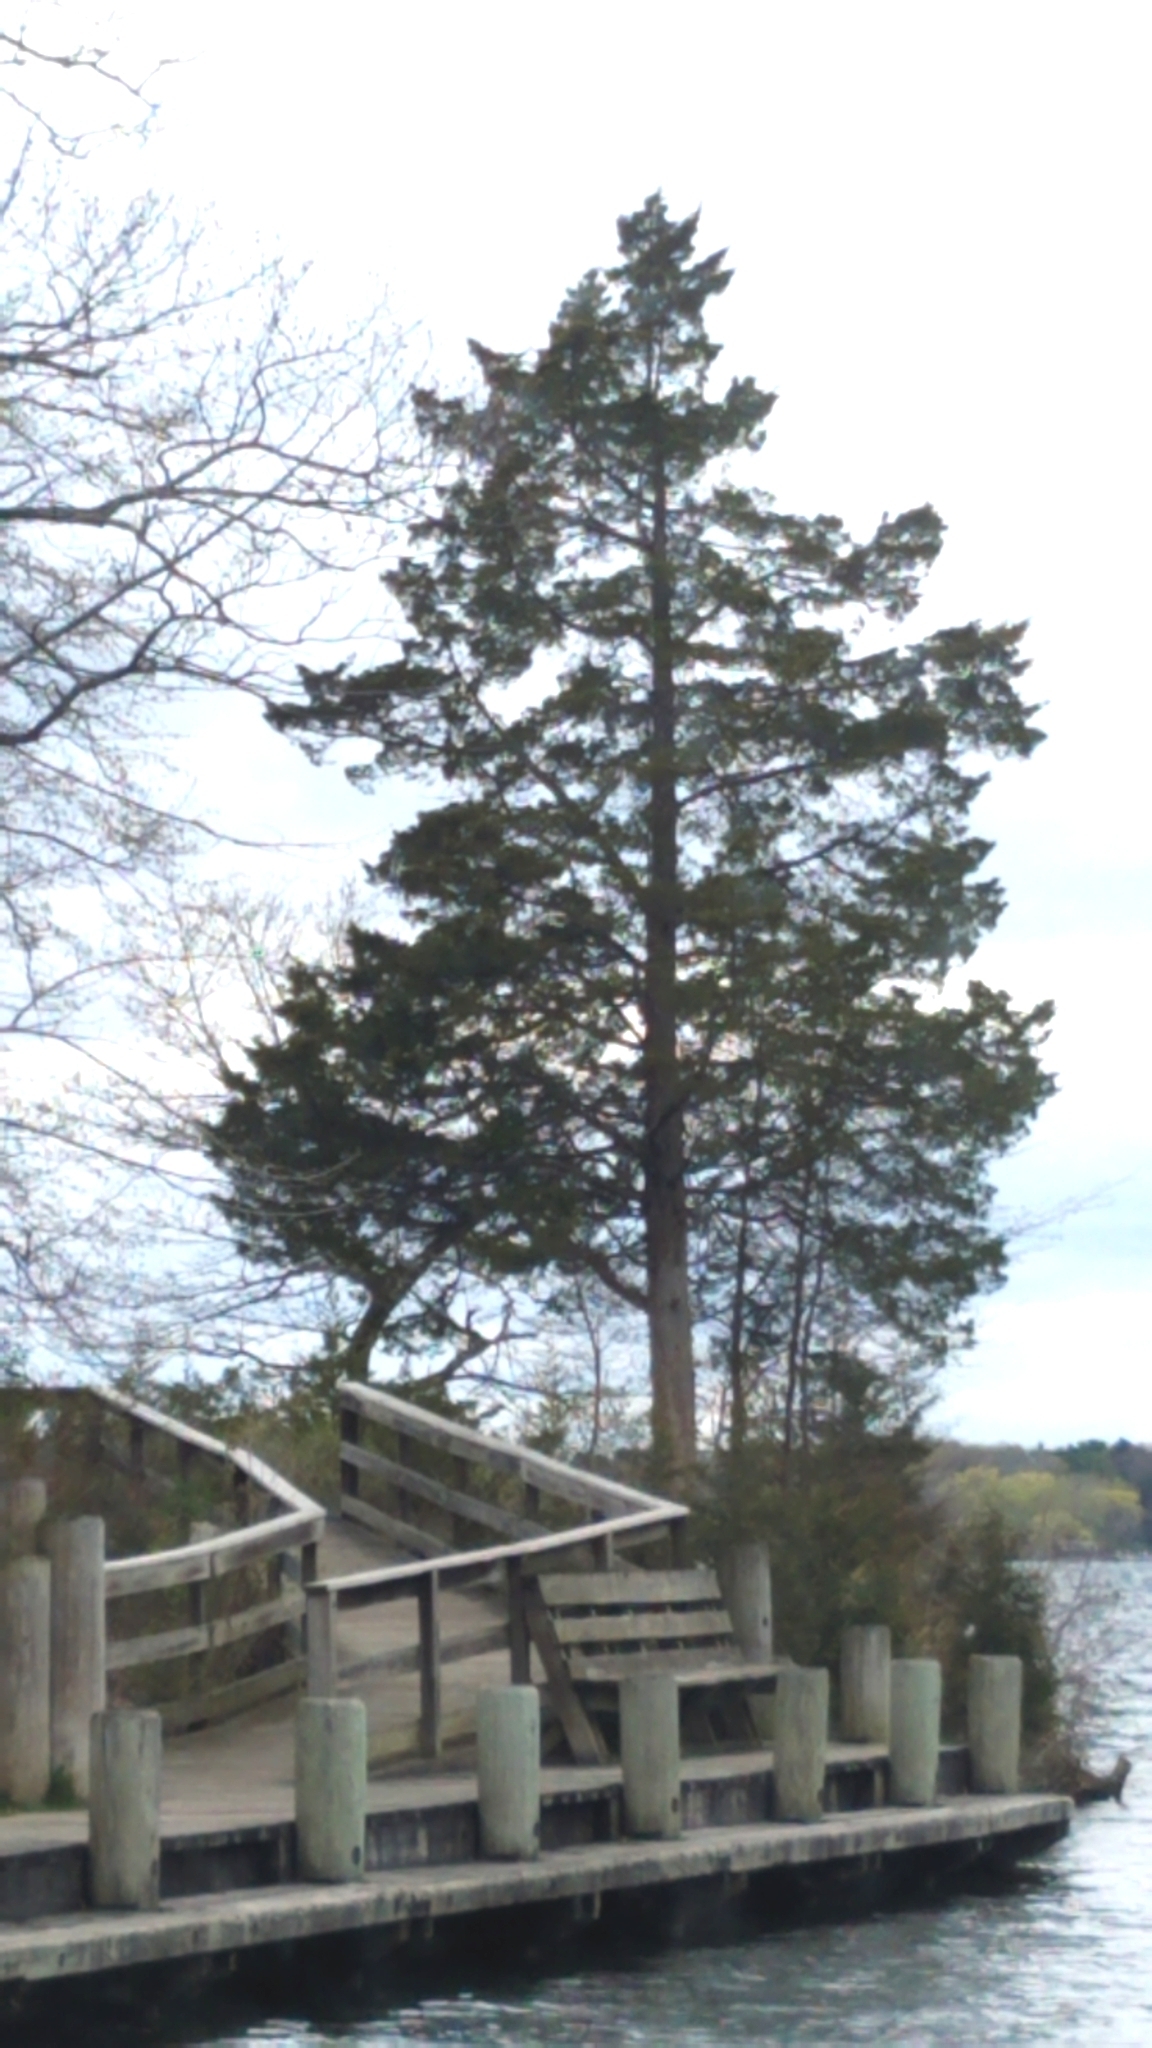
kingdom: Plantae
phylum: Tracheophyta
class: Pinopsida
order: Pinales
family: Cupressaceae
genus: Juniperus
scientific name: Juniperus virginiana
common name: Red juniper
